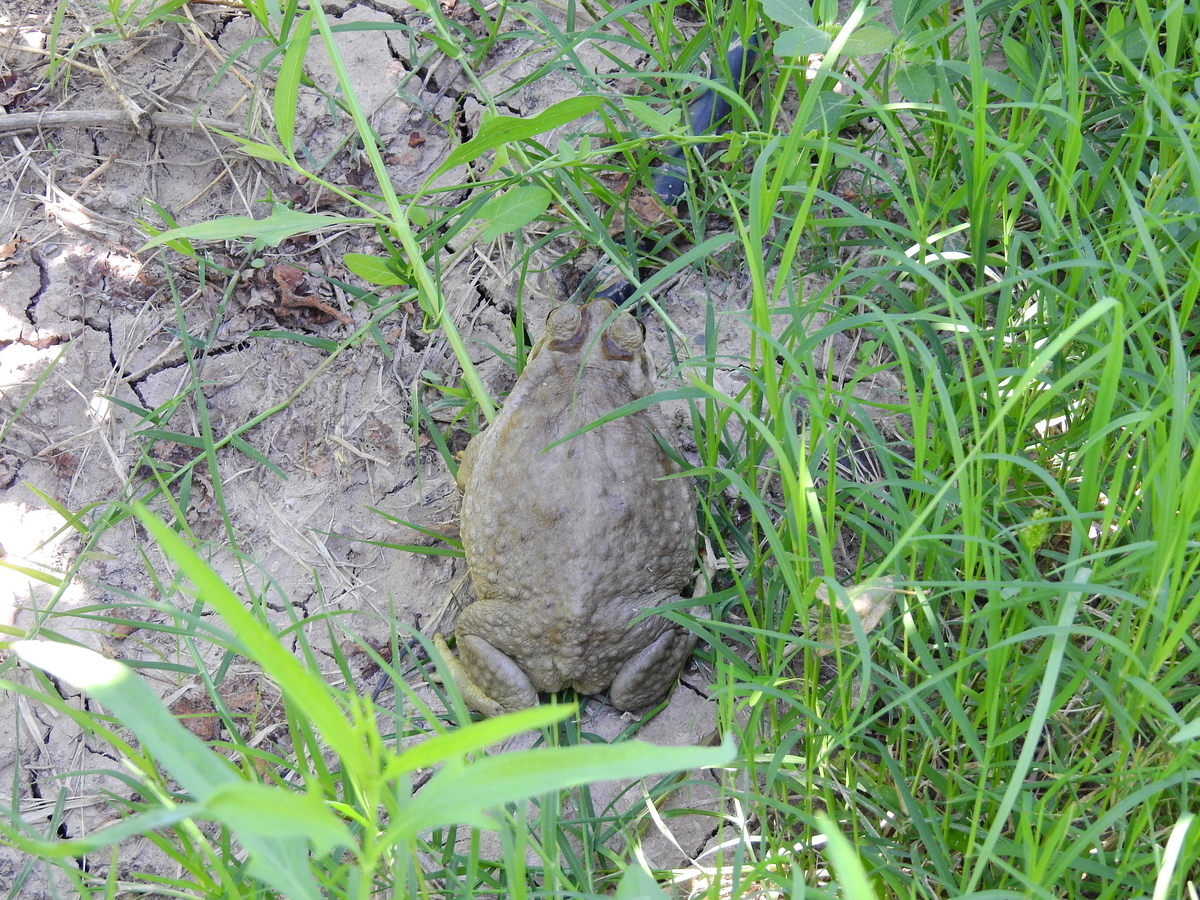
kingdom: Animalia
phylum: Chordata
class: Amphibia
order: Anura
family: Bufonidae
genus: Rhinella
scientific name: Rhinella arenarum
